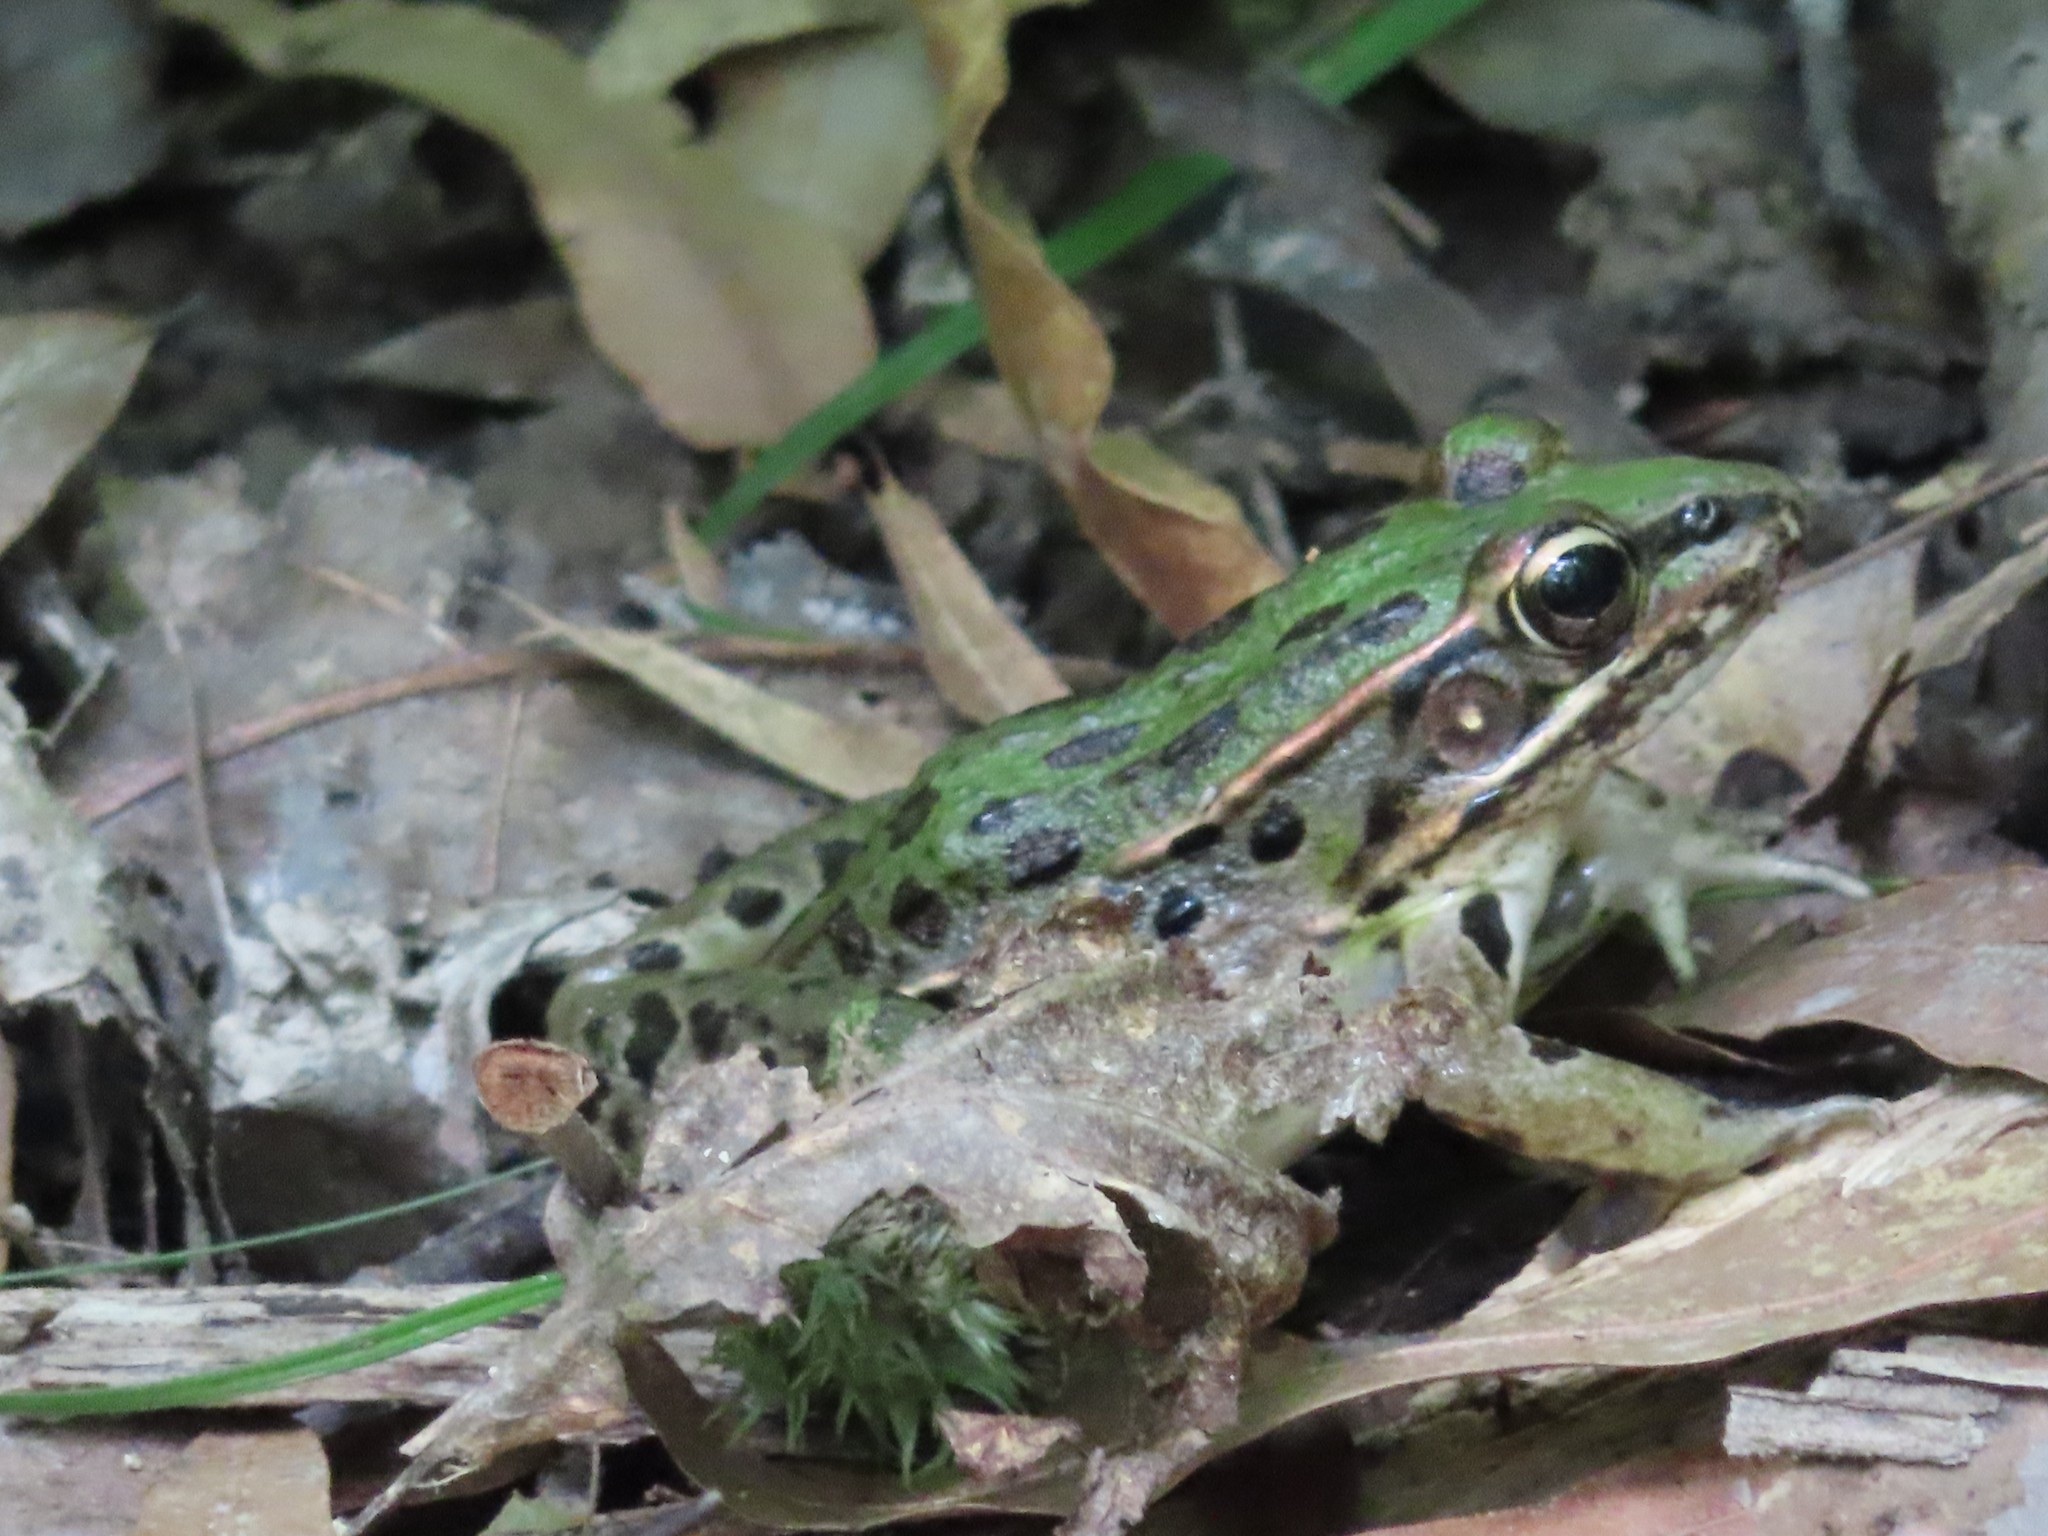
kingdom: Animalia
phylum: Chordata
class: Amphibia
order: Anura
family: Ranidae
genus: Lithobates
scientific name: Lithobates sphenocephalus
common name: Southern leopard frog
